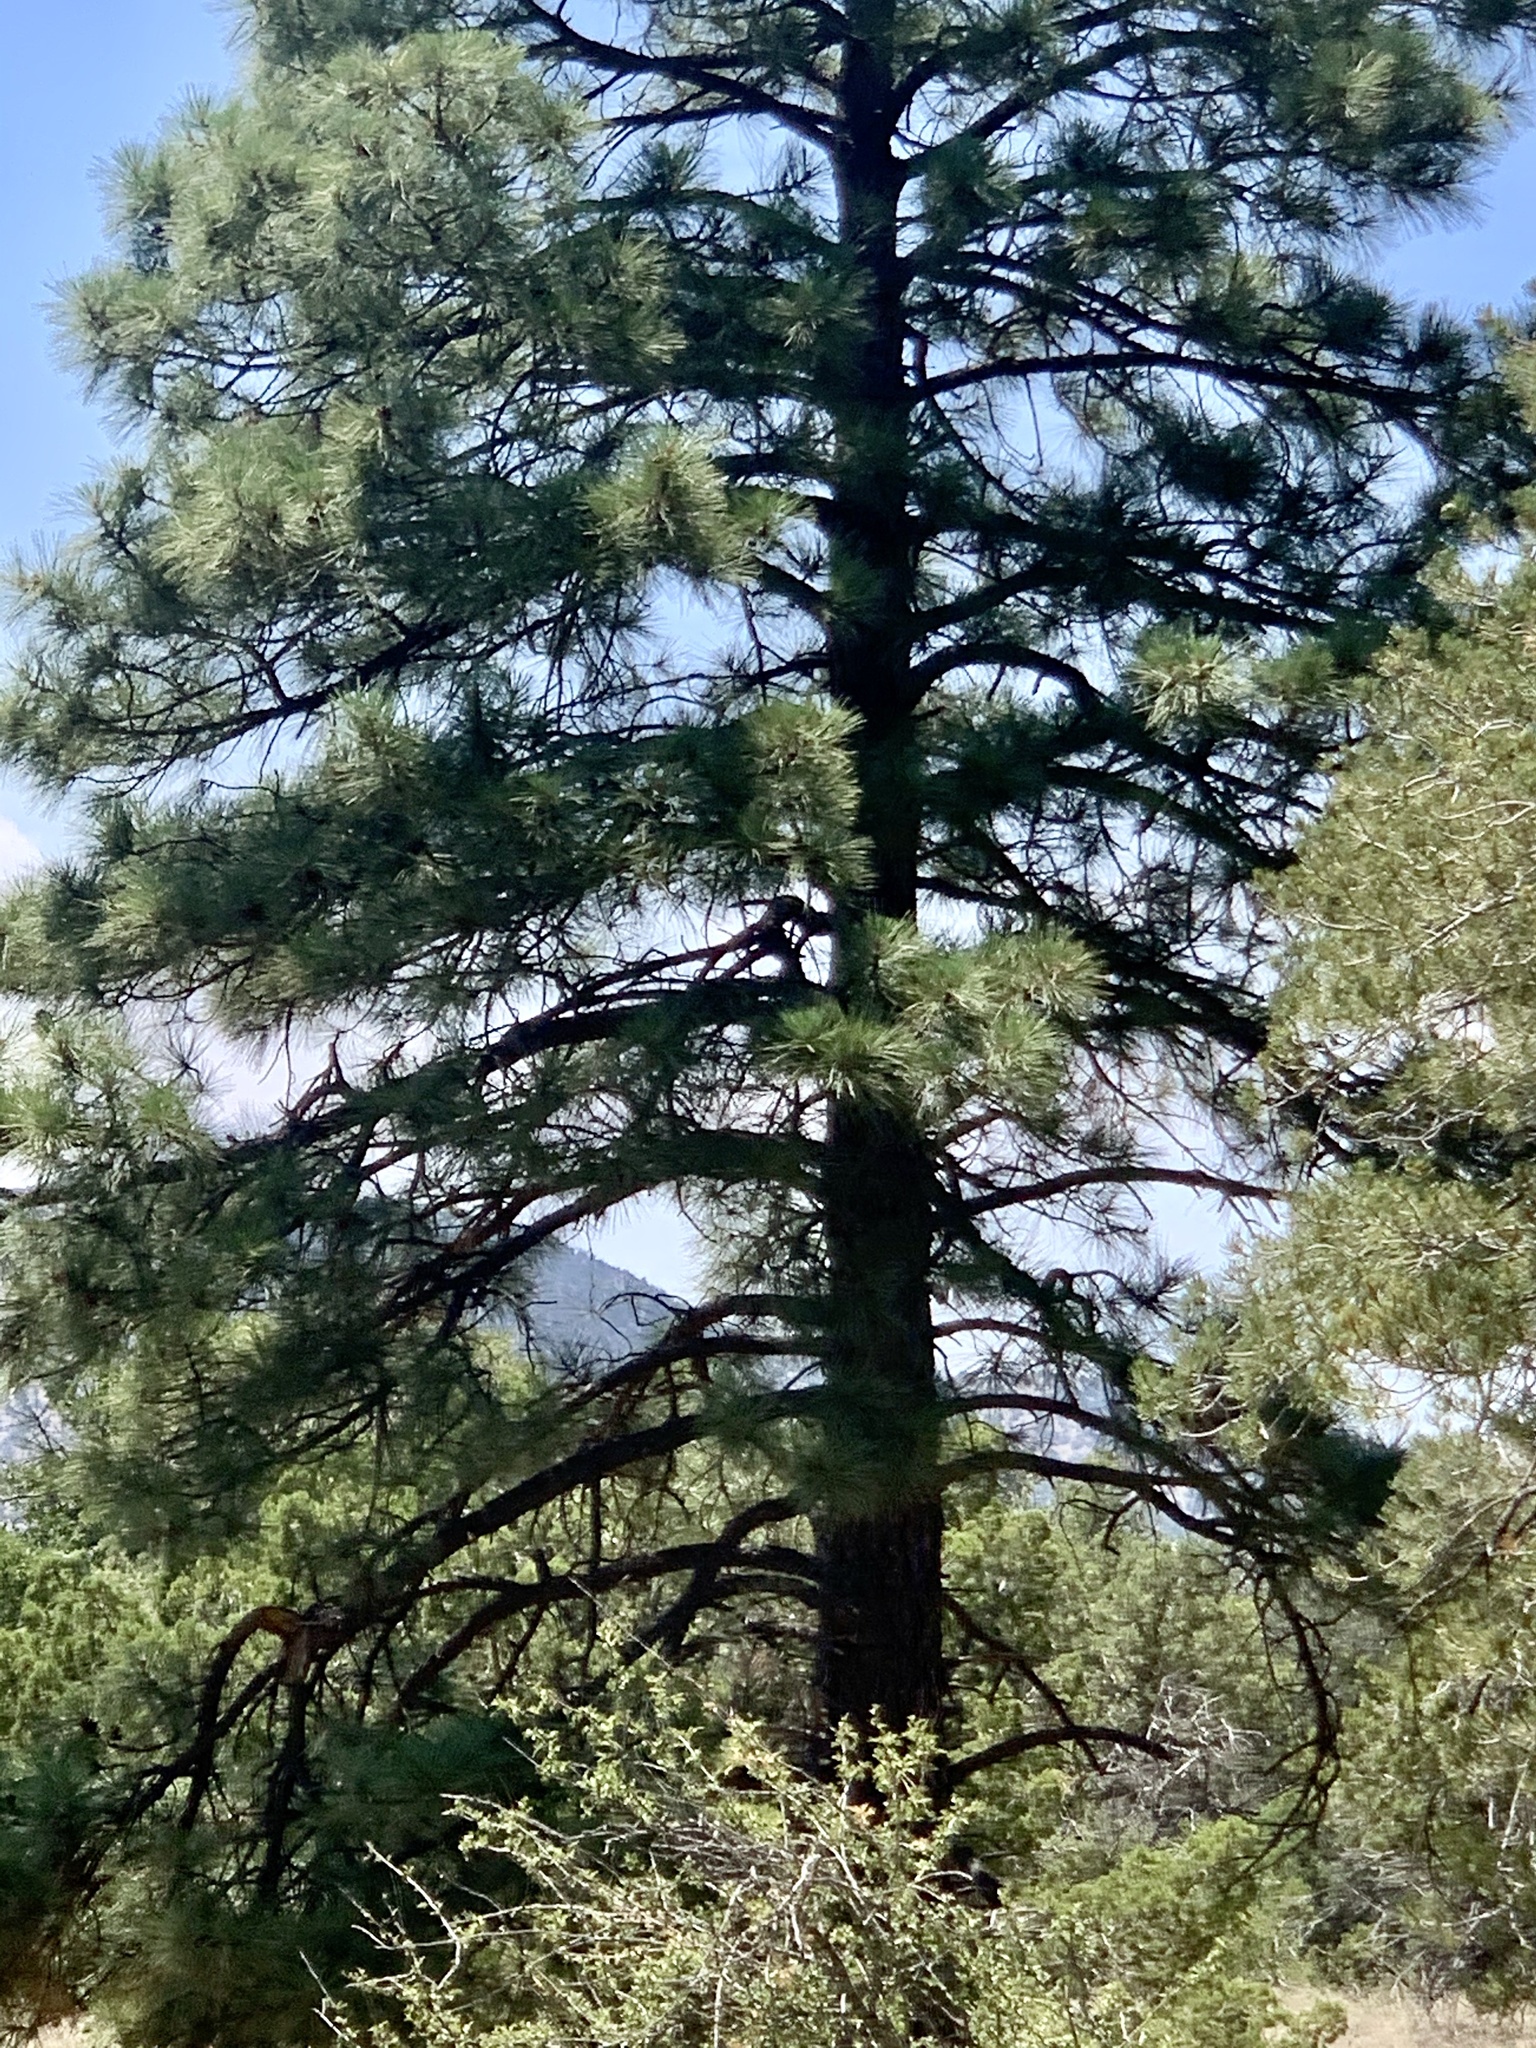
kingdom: Plantae
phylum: Tracheophyta
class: Pinopsida
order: Pinales
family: Pinaceae
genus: Pinus
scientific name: Pinus ponderosa
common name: Western yellow-pine
